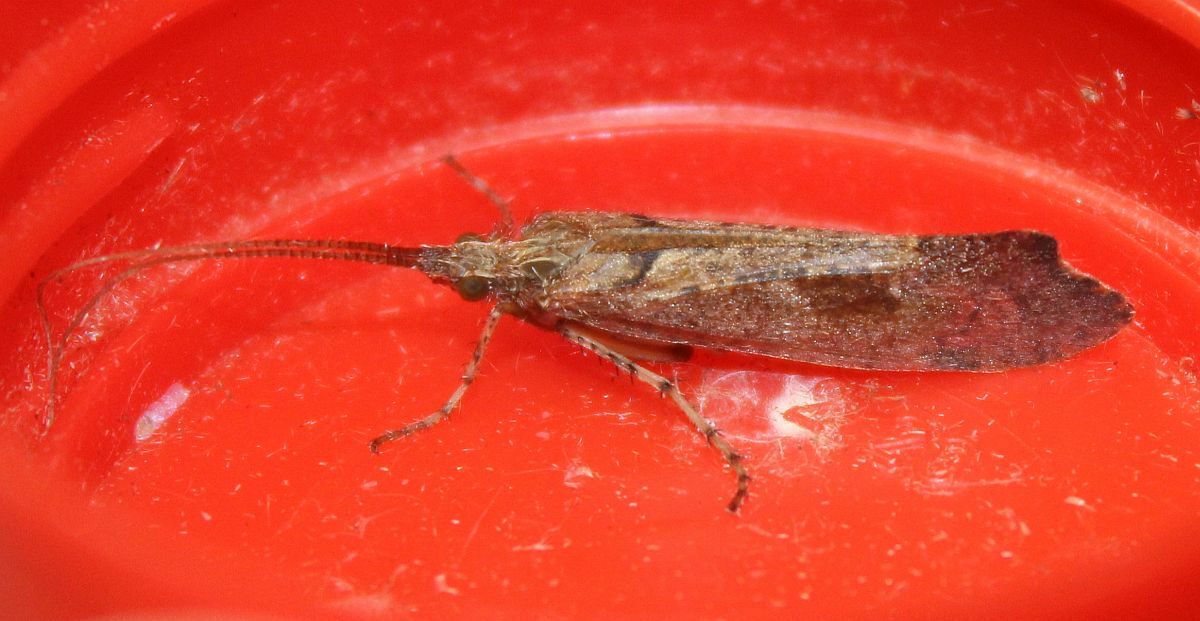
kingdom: Animalia
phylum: Arthropoda
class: Insecta
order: Trichoptera
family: Limnephilidae
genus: Glyphotaelius
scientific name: Glyphotaelius pellucidus
